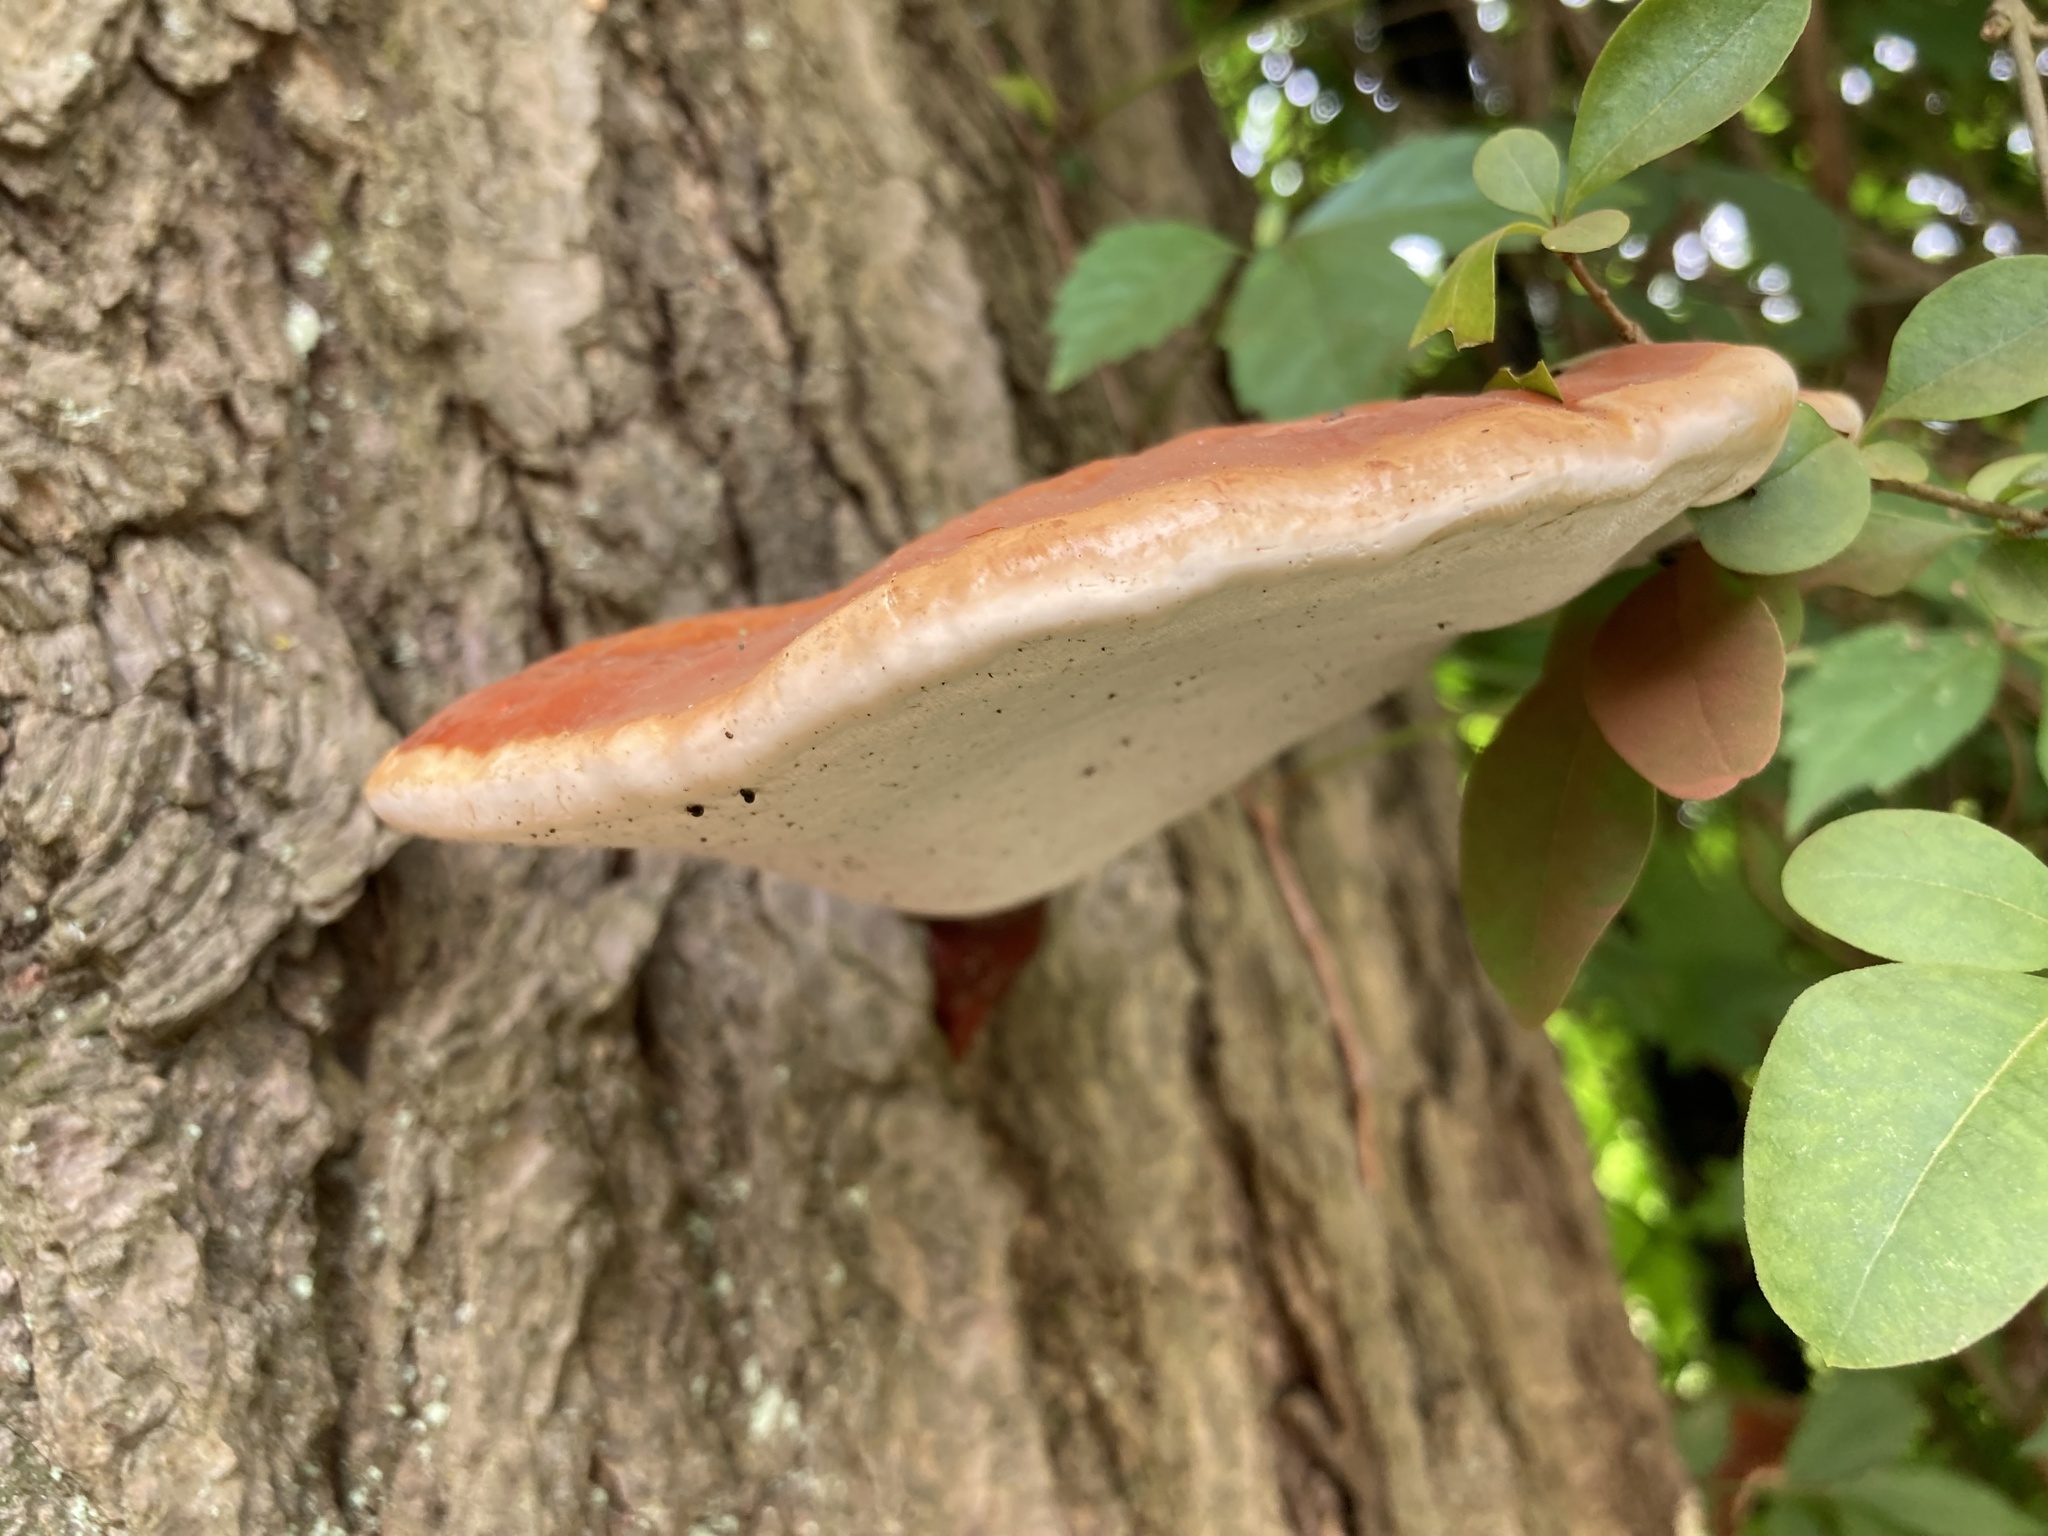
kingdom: Fungi
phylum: Basidiomycota
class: Agaricomycetes
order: Polyporales
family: Polyporaceae
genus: Ganoderma
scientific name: Ganoderma tsugae
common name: Hemlock varnish shelf
